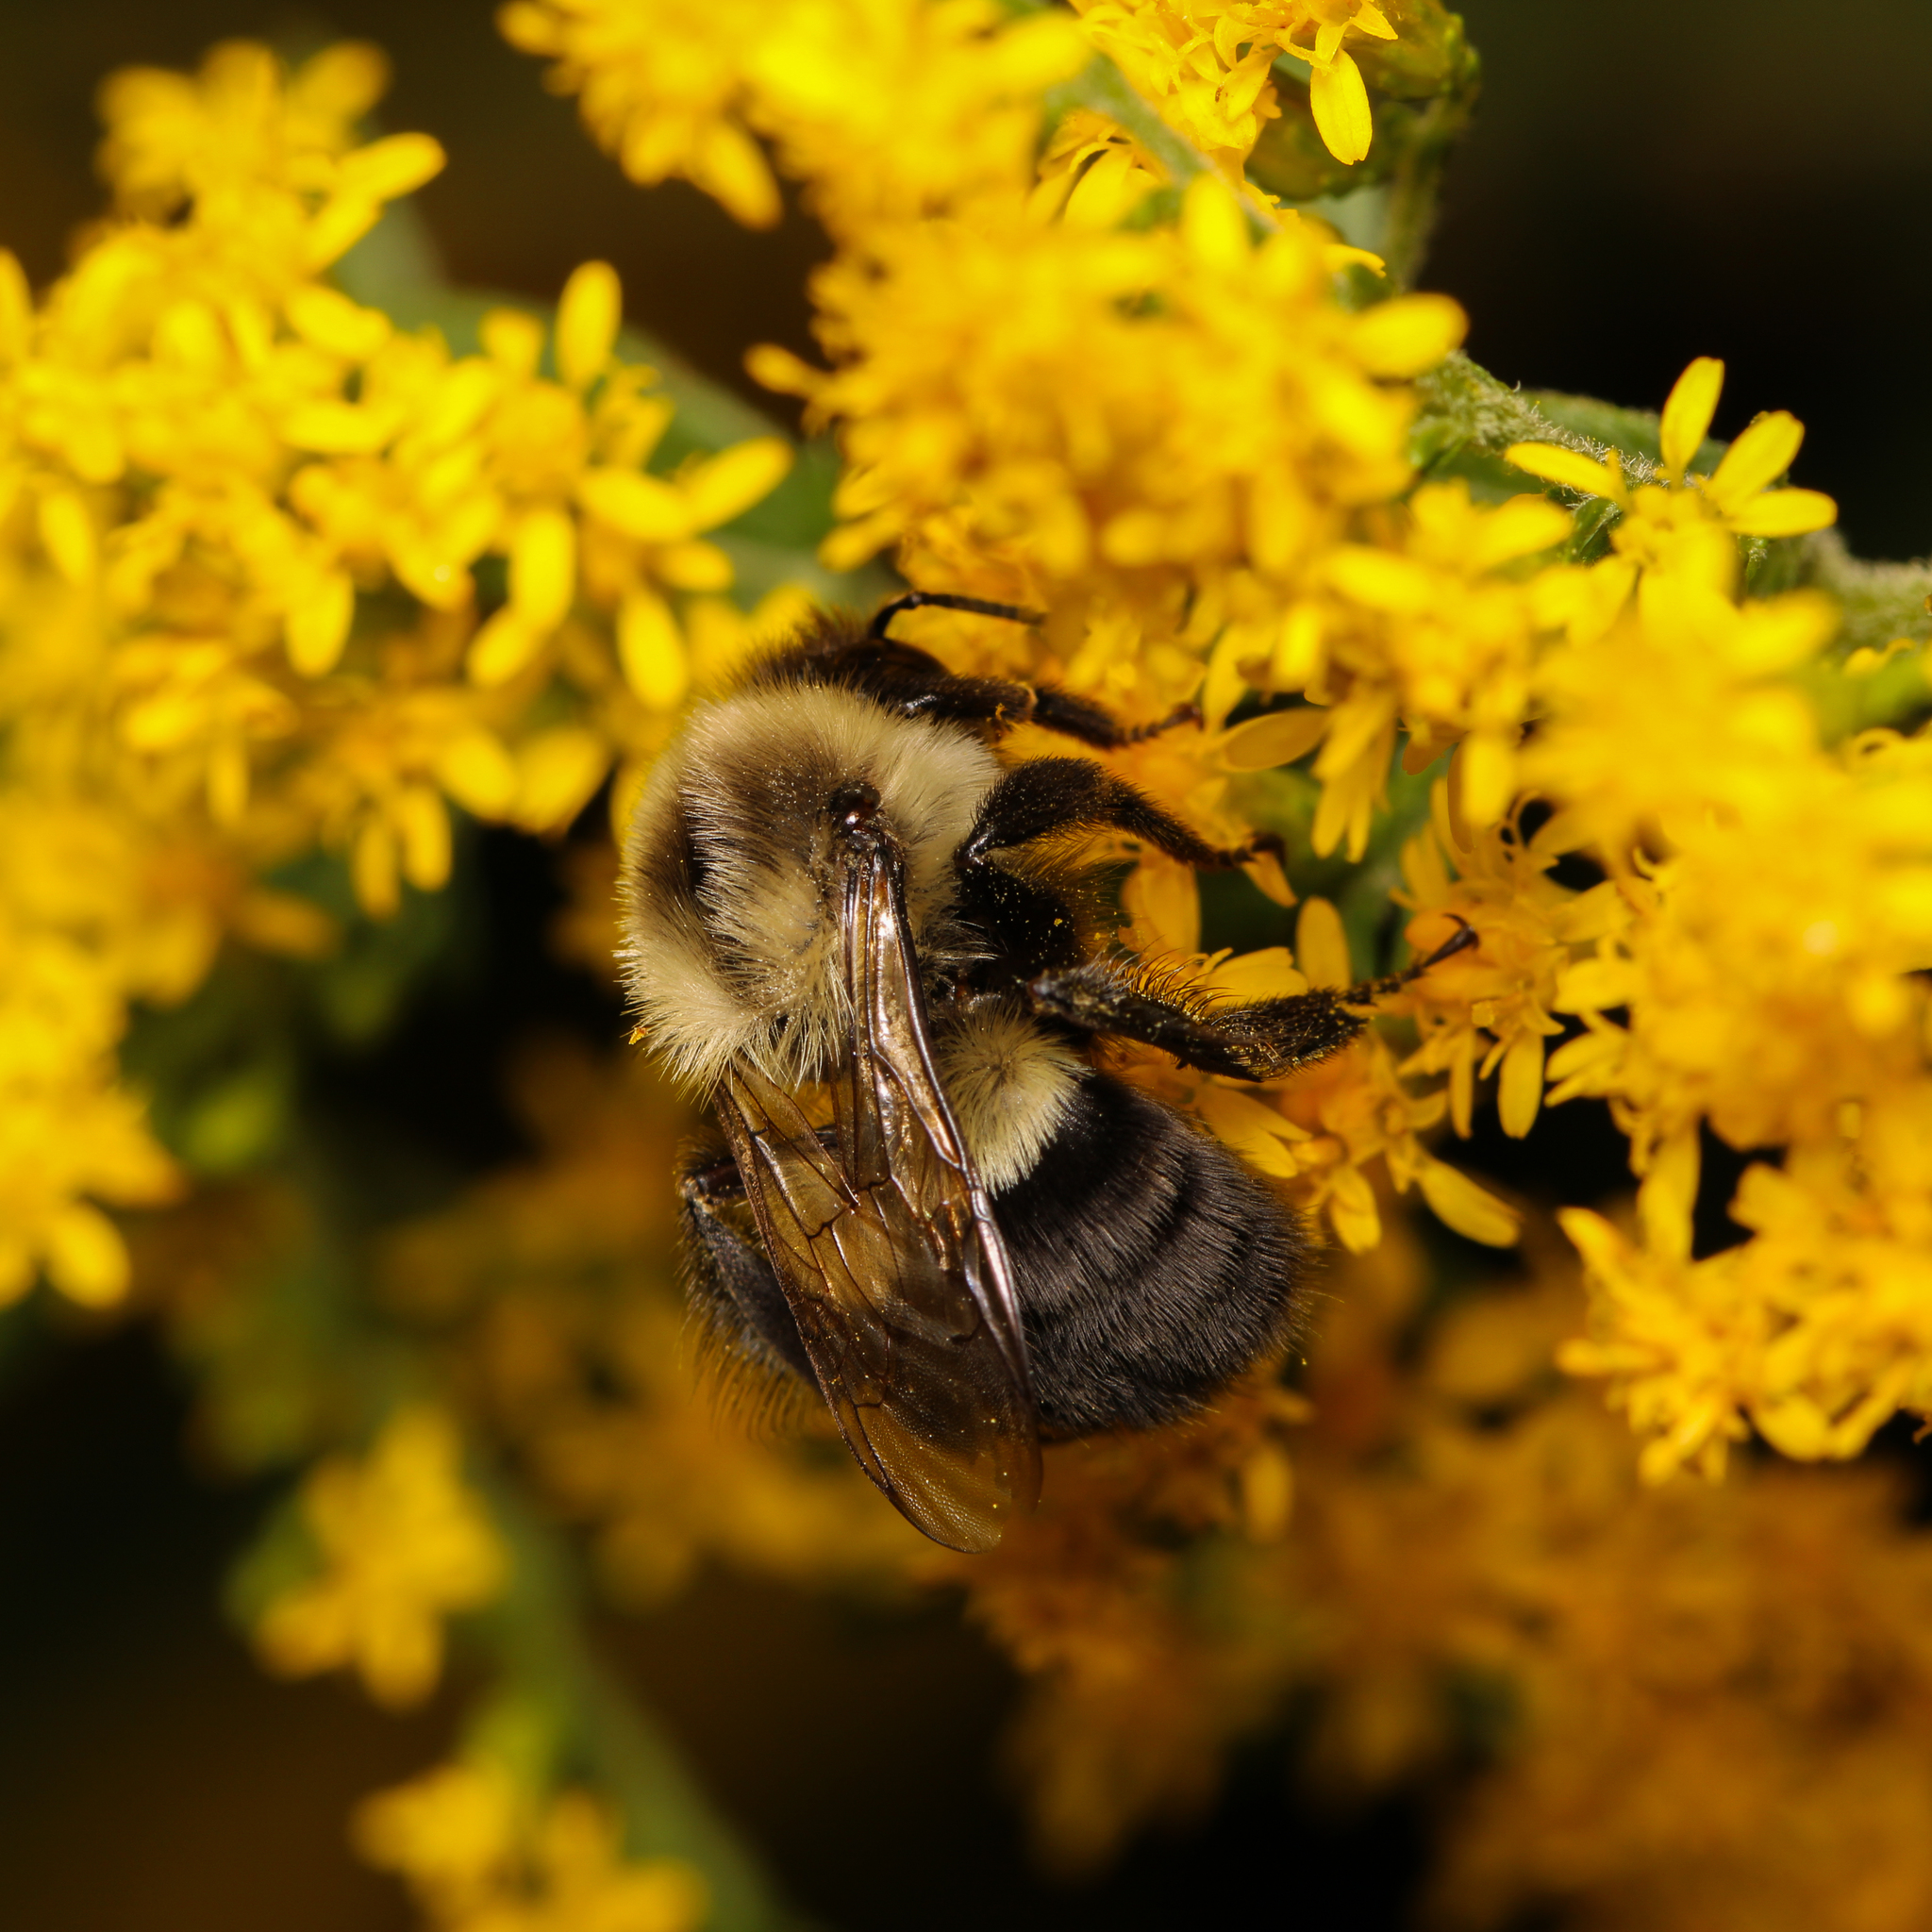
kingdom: Animalia
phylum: Arthropoda
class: Insecta
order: Hymenoptera
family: Apidae
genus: Bombus
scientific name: Bombus impatiens
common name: Common eastern bumble bee
